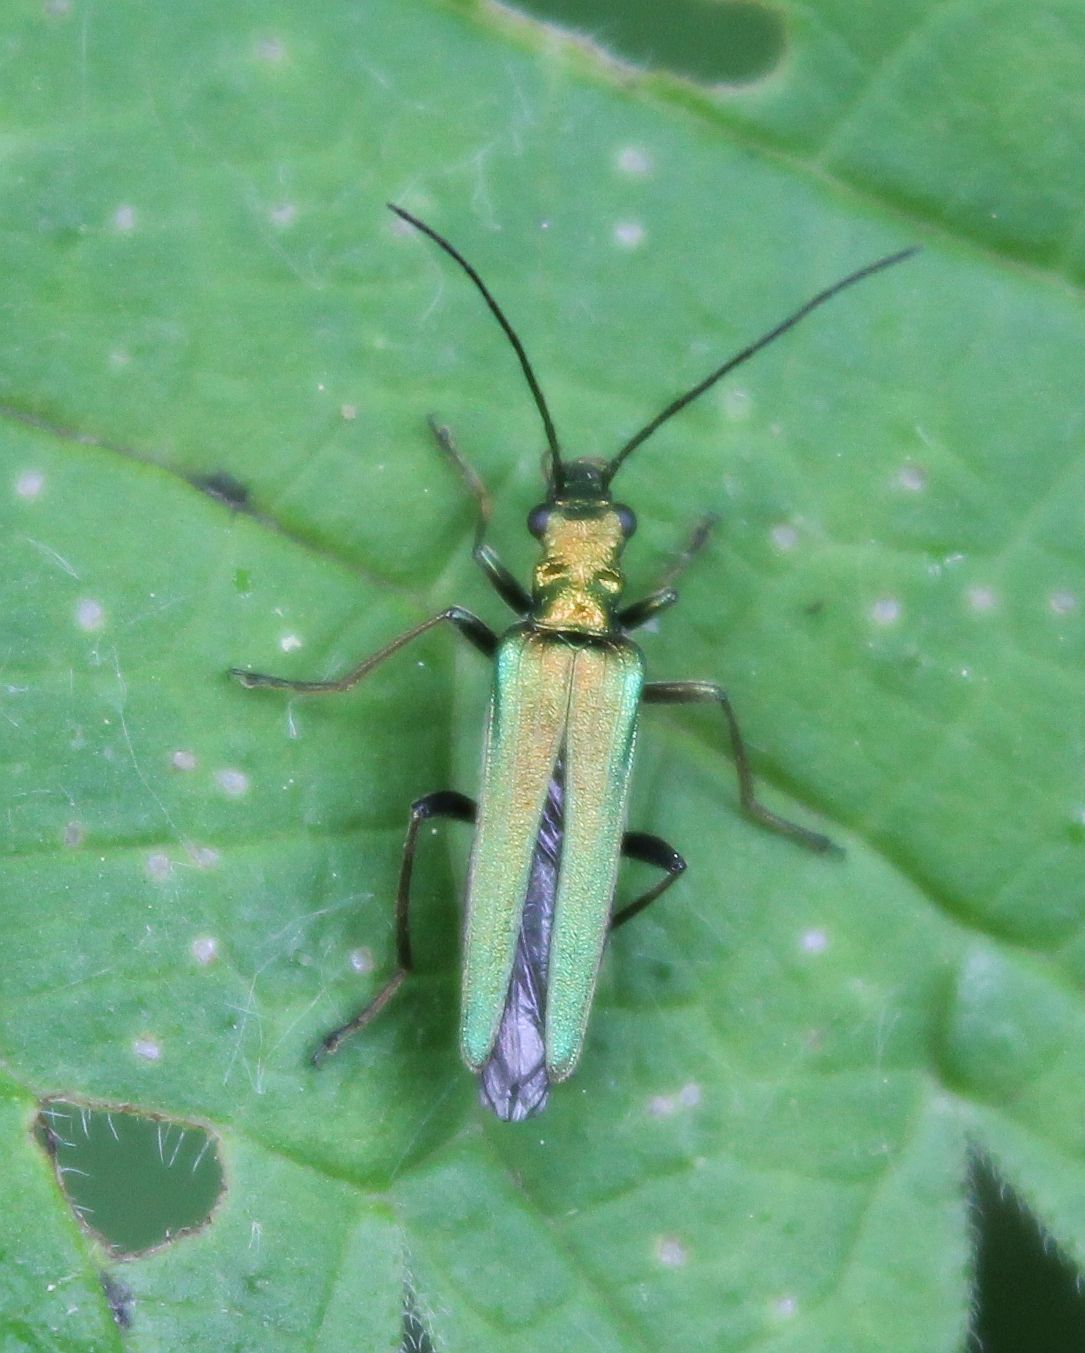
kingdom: Animalia
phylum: Arthropoda
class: Insecta
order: Coleoptera
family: Oedemeridae
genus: Oedemera
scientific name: Oedemera nobilis
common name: Swollen-thighed beetle
